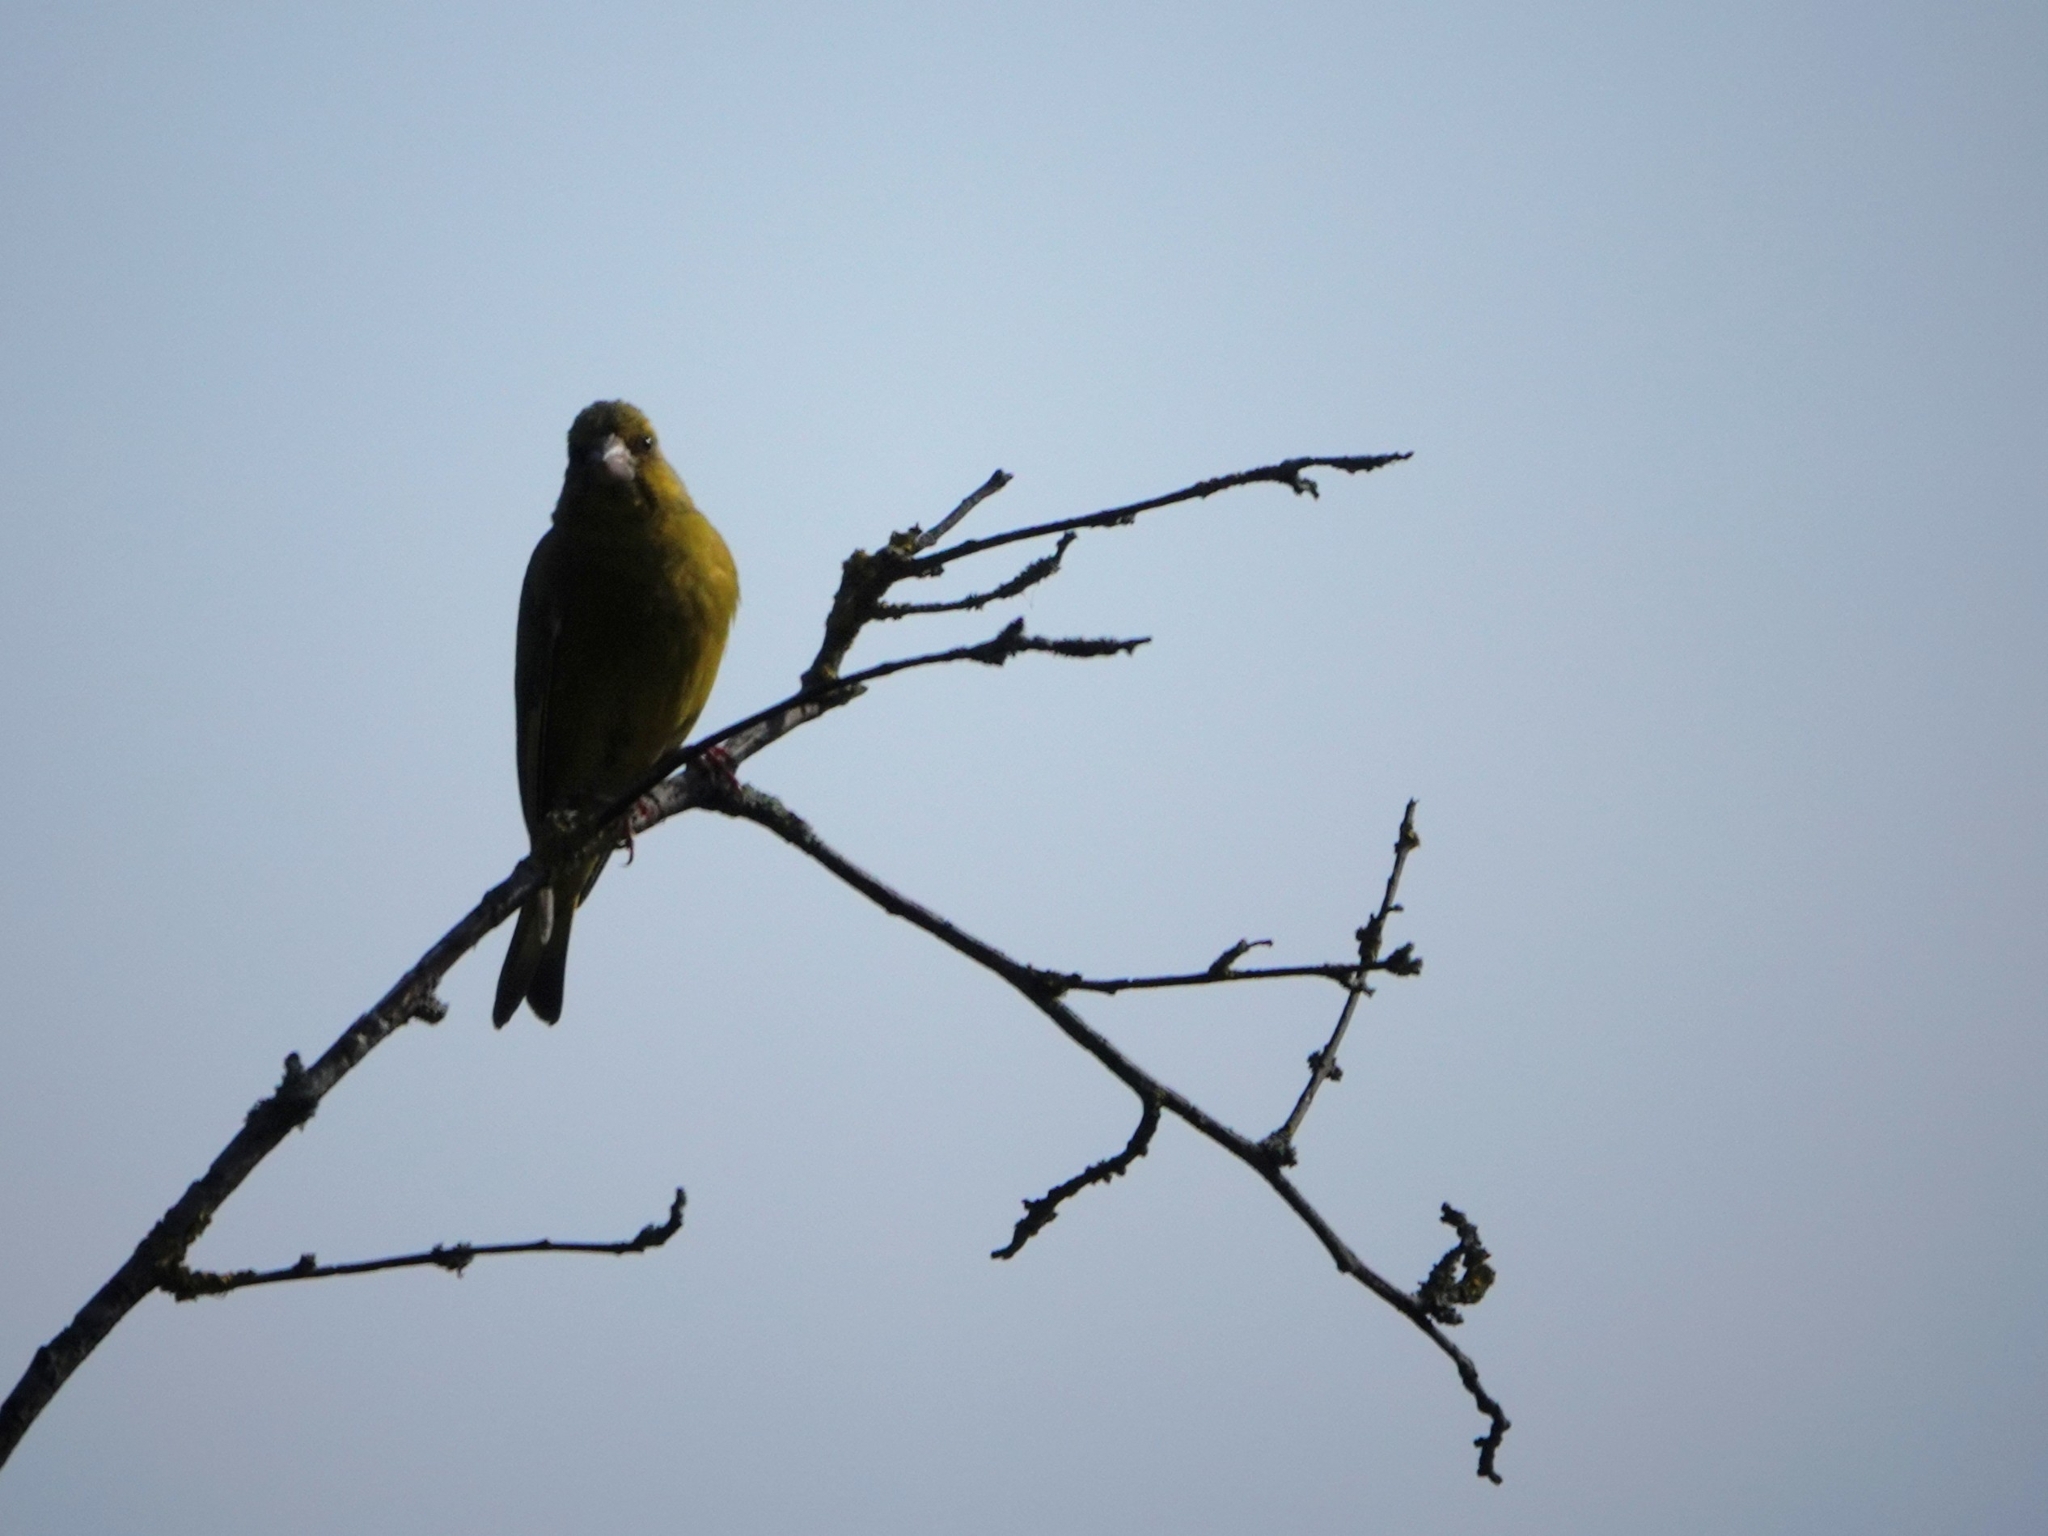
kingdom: Plantae
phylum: Tracheophyta
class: Liliopsida
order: Poales
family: Poaceae
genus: Chloris
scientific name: Chloris chloris
